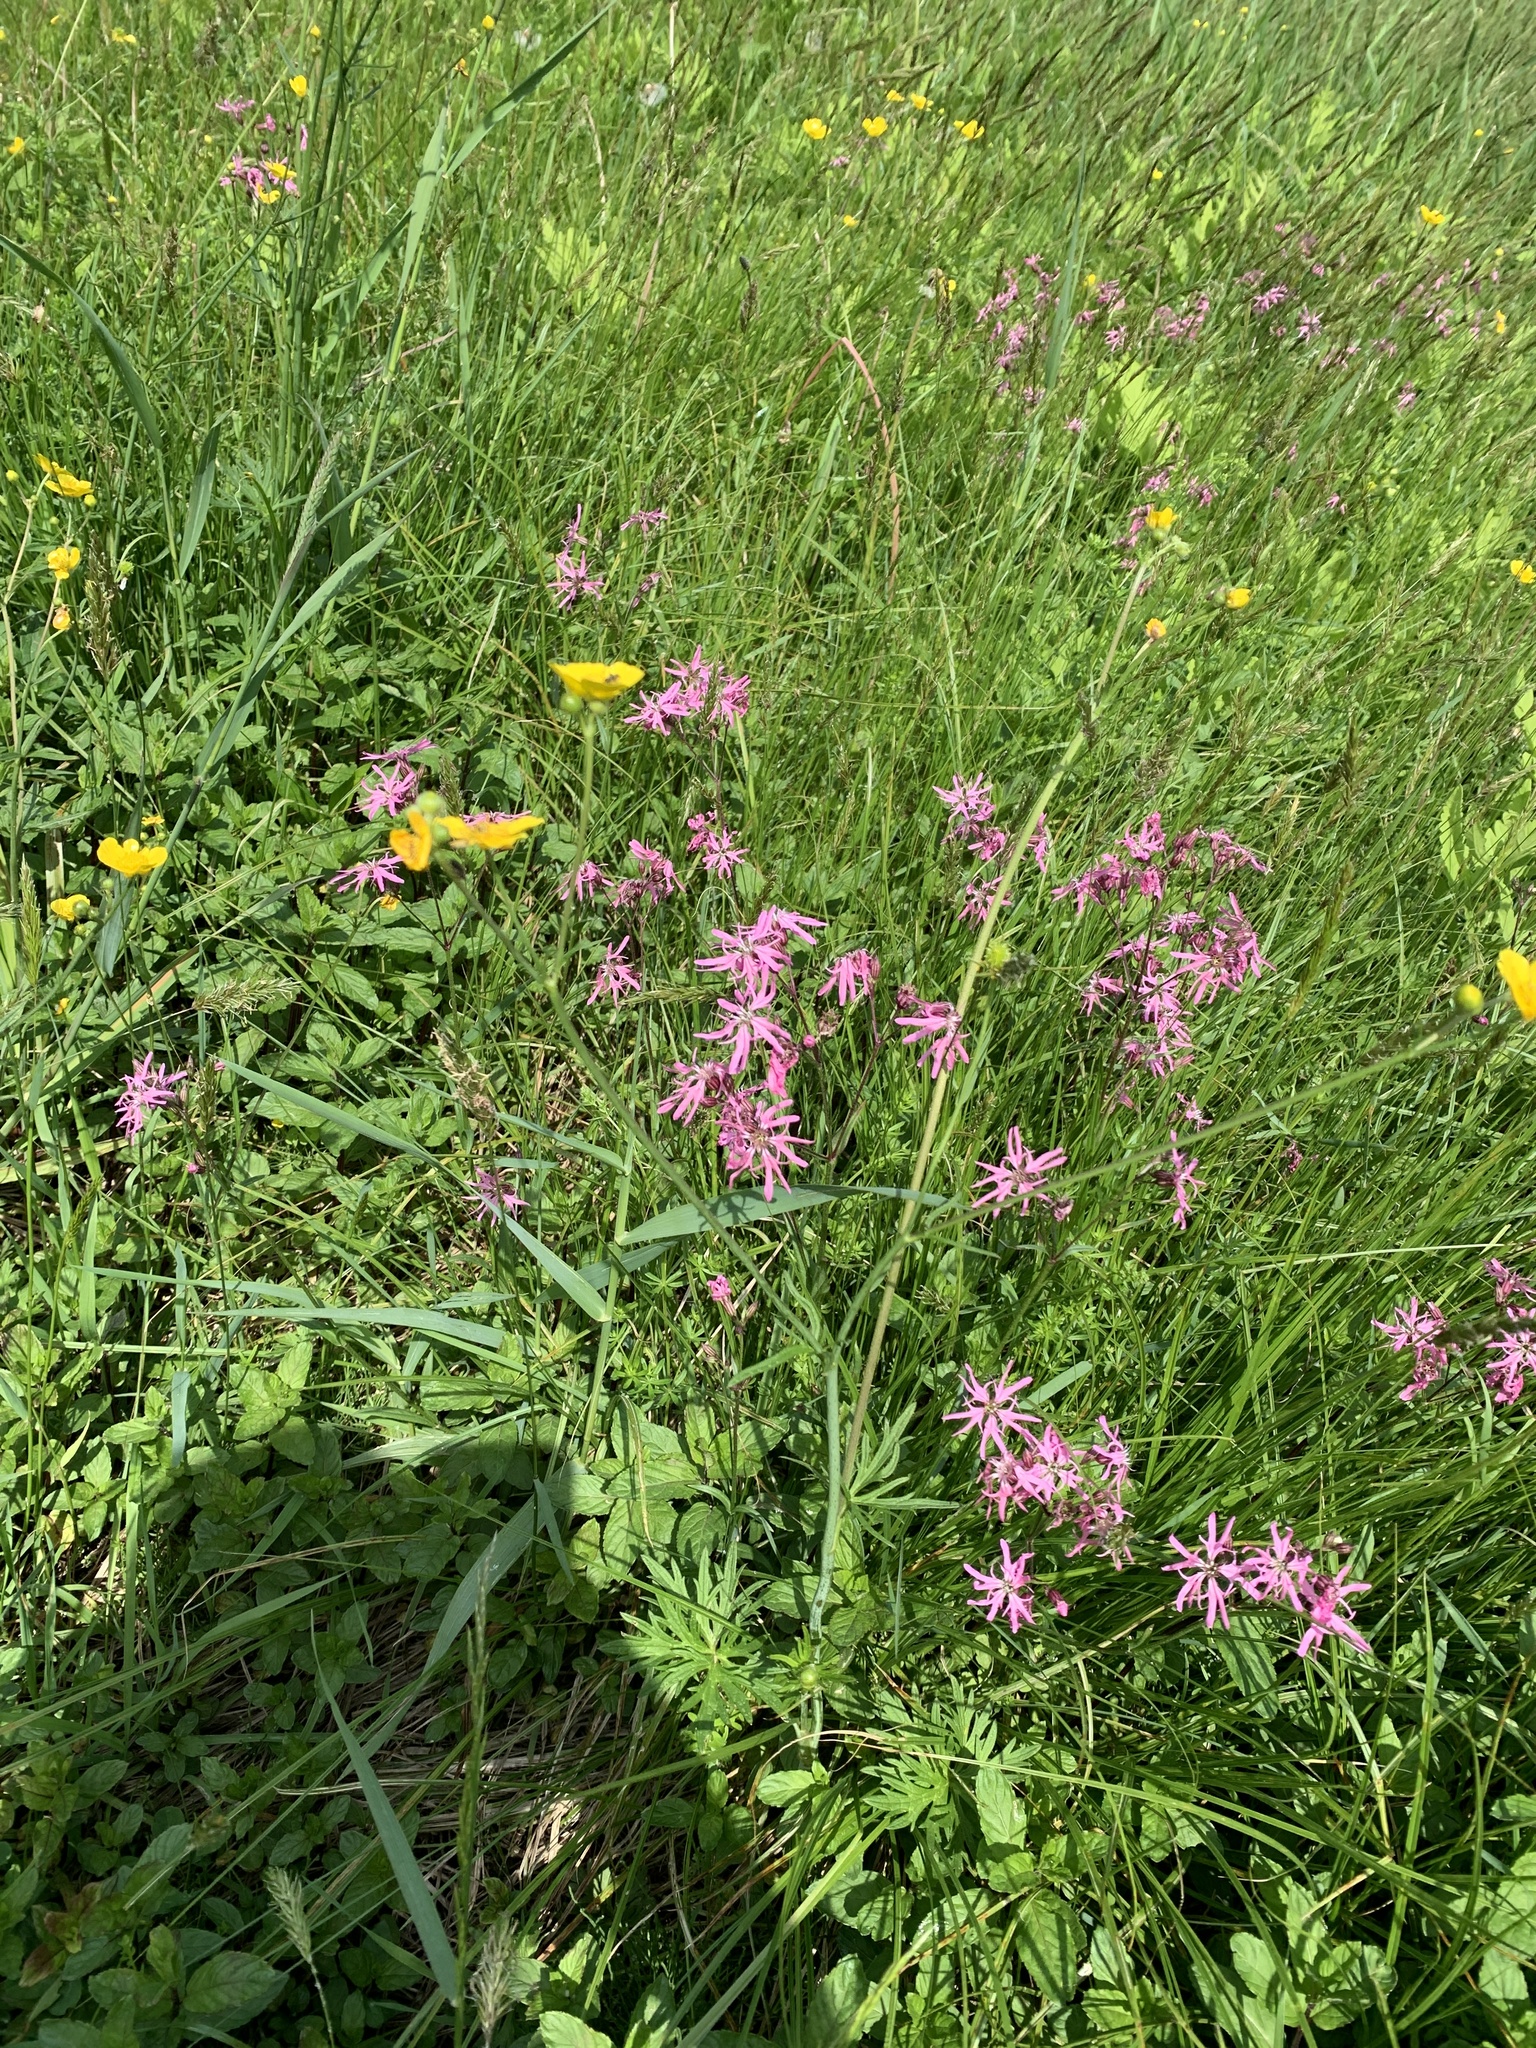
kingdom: Plantae
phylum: Tracheophyta
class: Magnoliopsida
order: Caryophyllales
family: Caryophyllaceae
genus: Silene
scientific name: Silene flos-cuculi
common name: Ragged-robin
